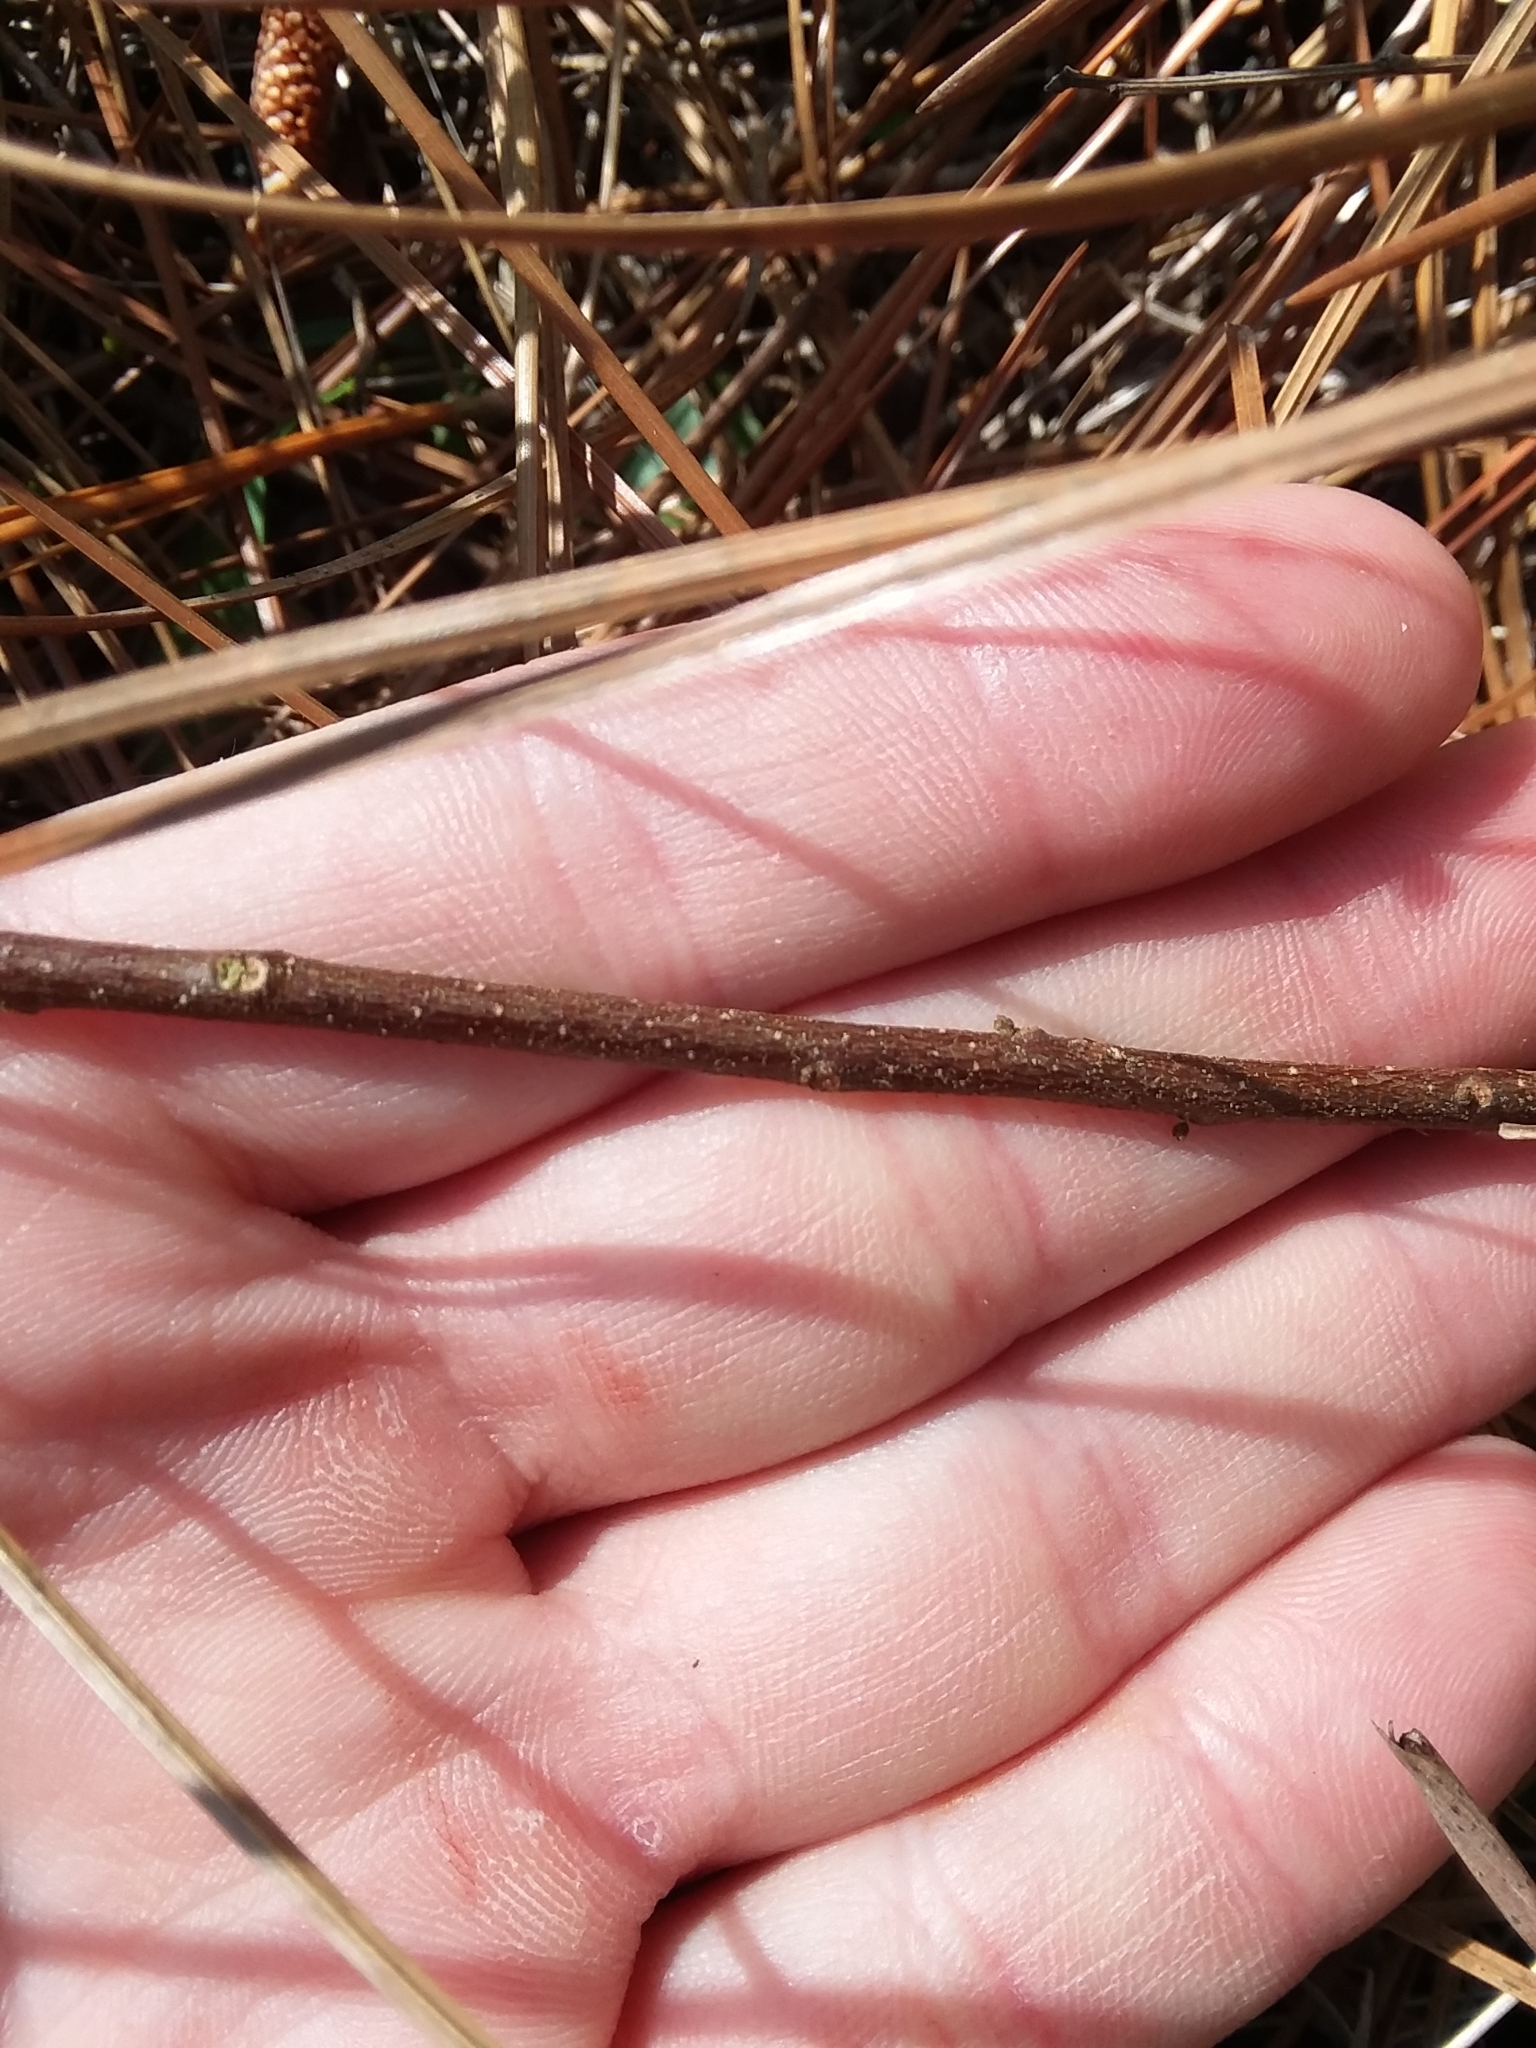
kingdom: Plantae
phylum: Tracheophyta
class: Magnoliopsida
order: Fagales
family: Myricaceae
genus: Morella
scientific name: Morella cerifera
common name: Wax myrtle
